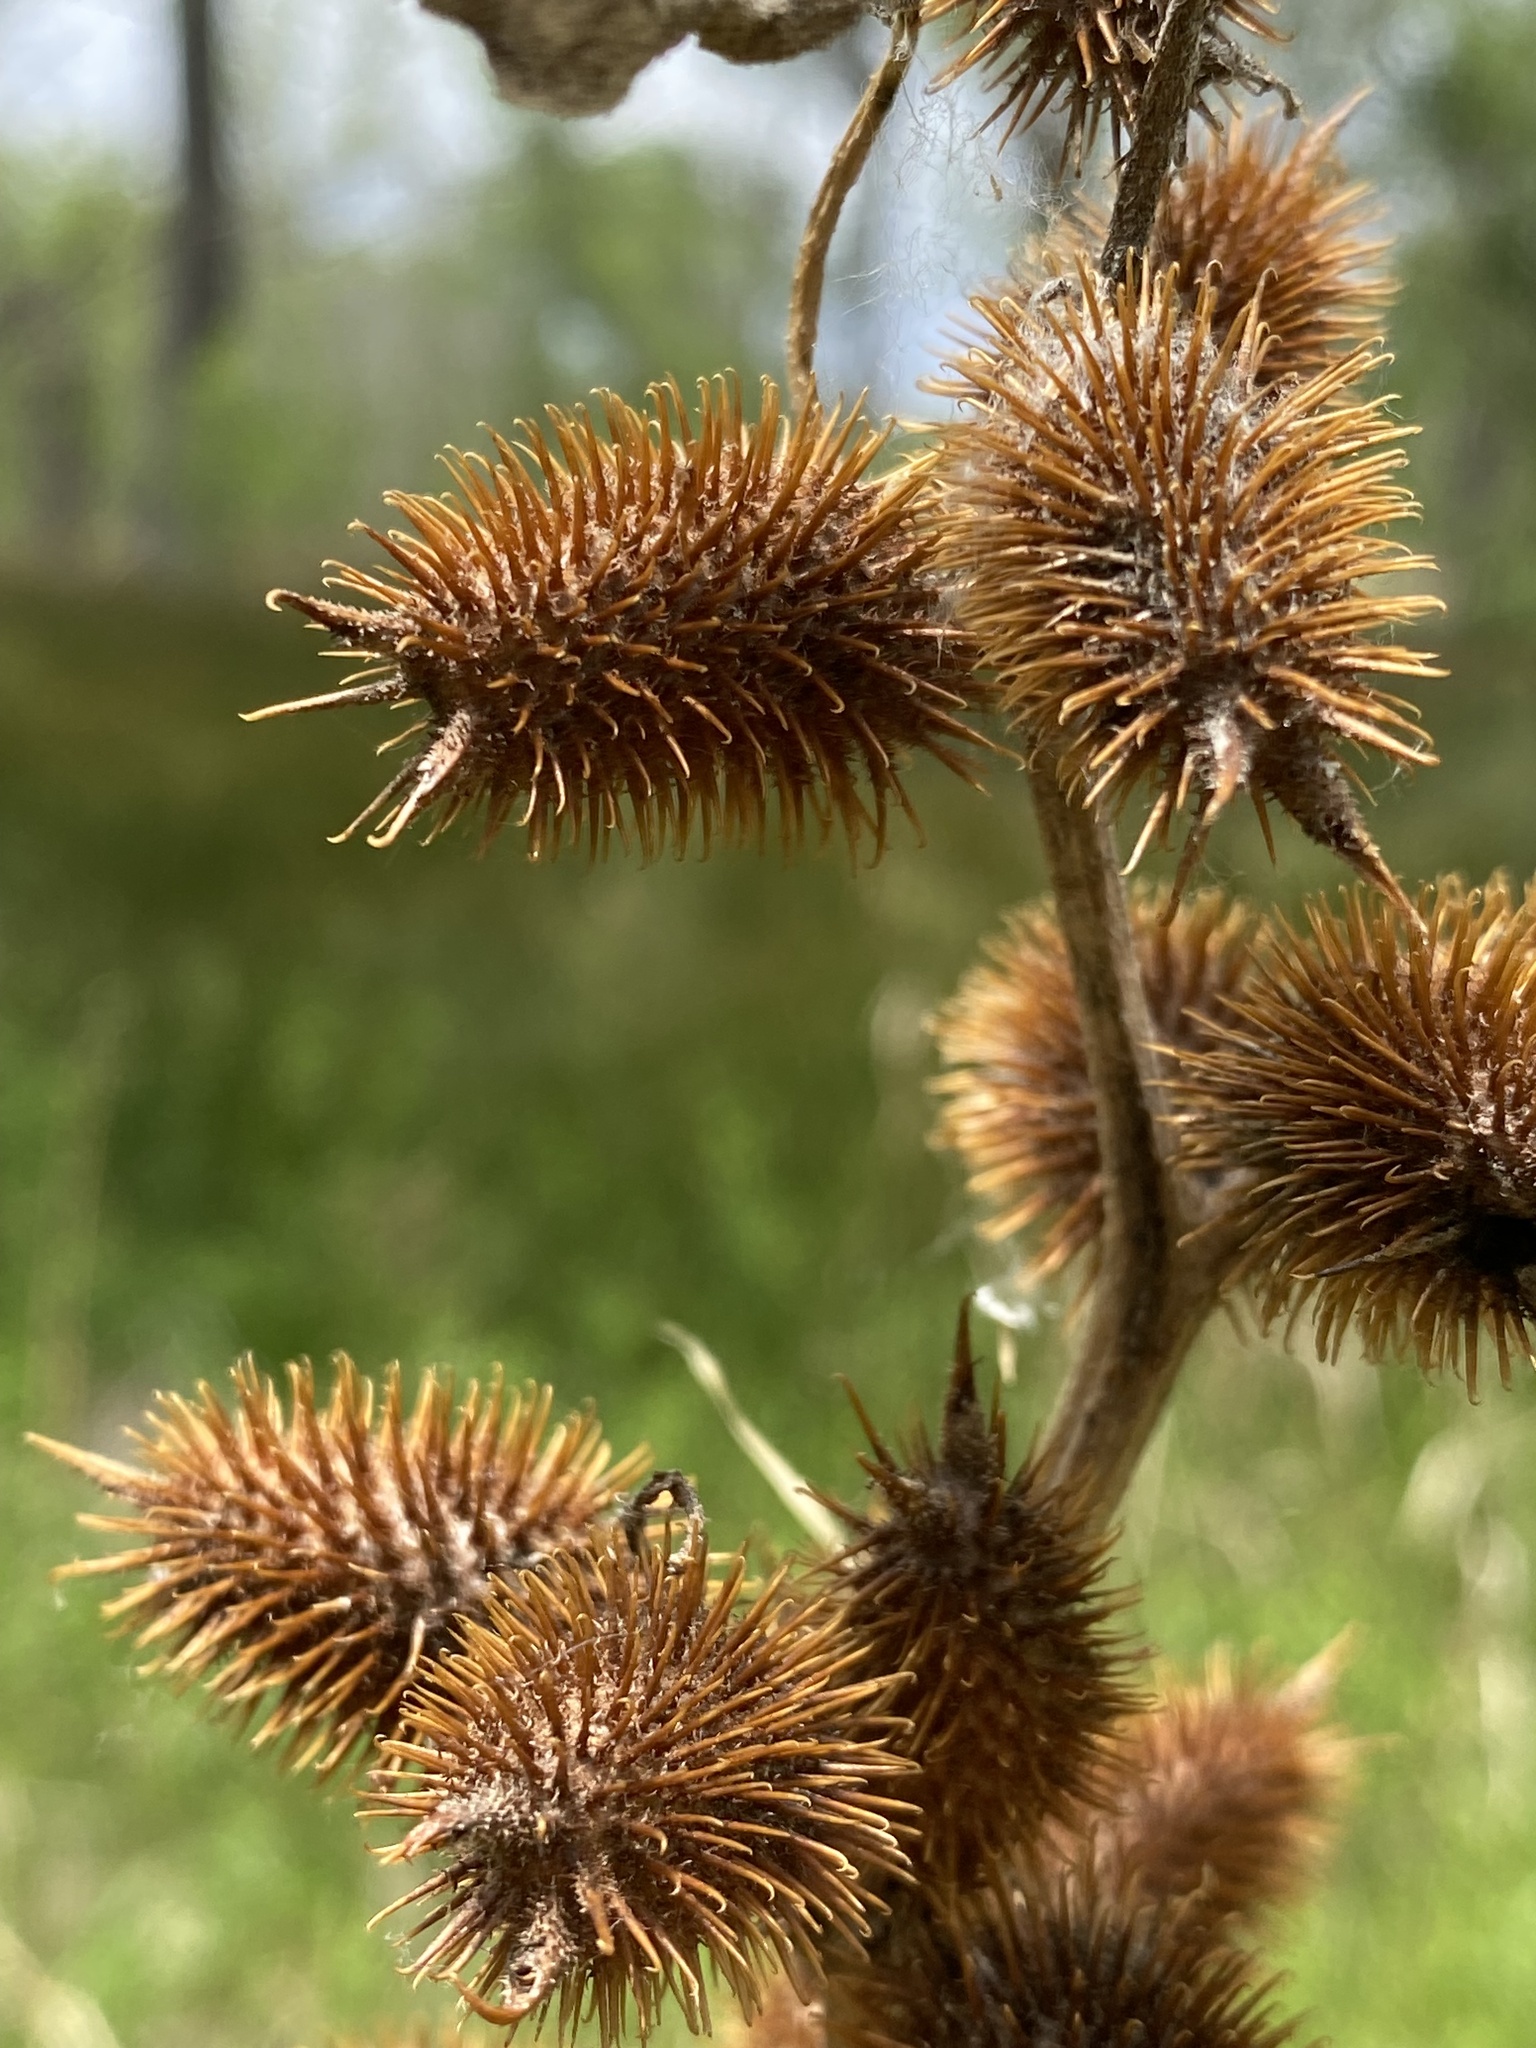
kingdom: Plantae
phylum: Tracheophyta
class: Magnoliopsida
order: Asterales
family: Asteraceae
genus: Xanthium
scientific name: Xanthium strumarium
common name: Rough cocklebur
